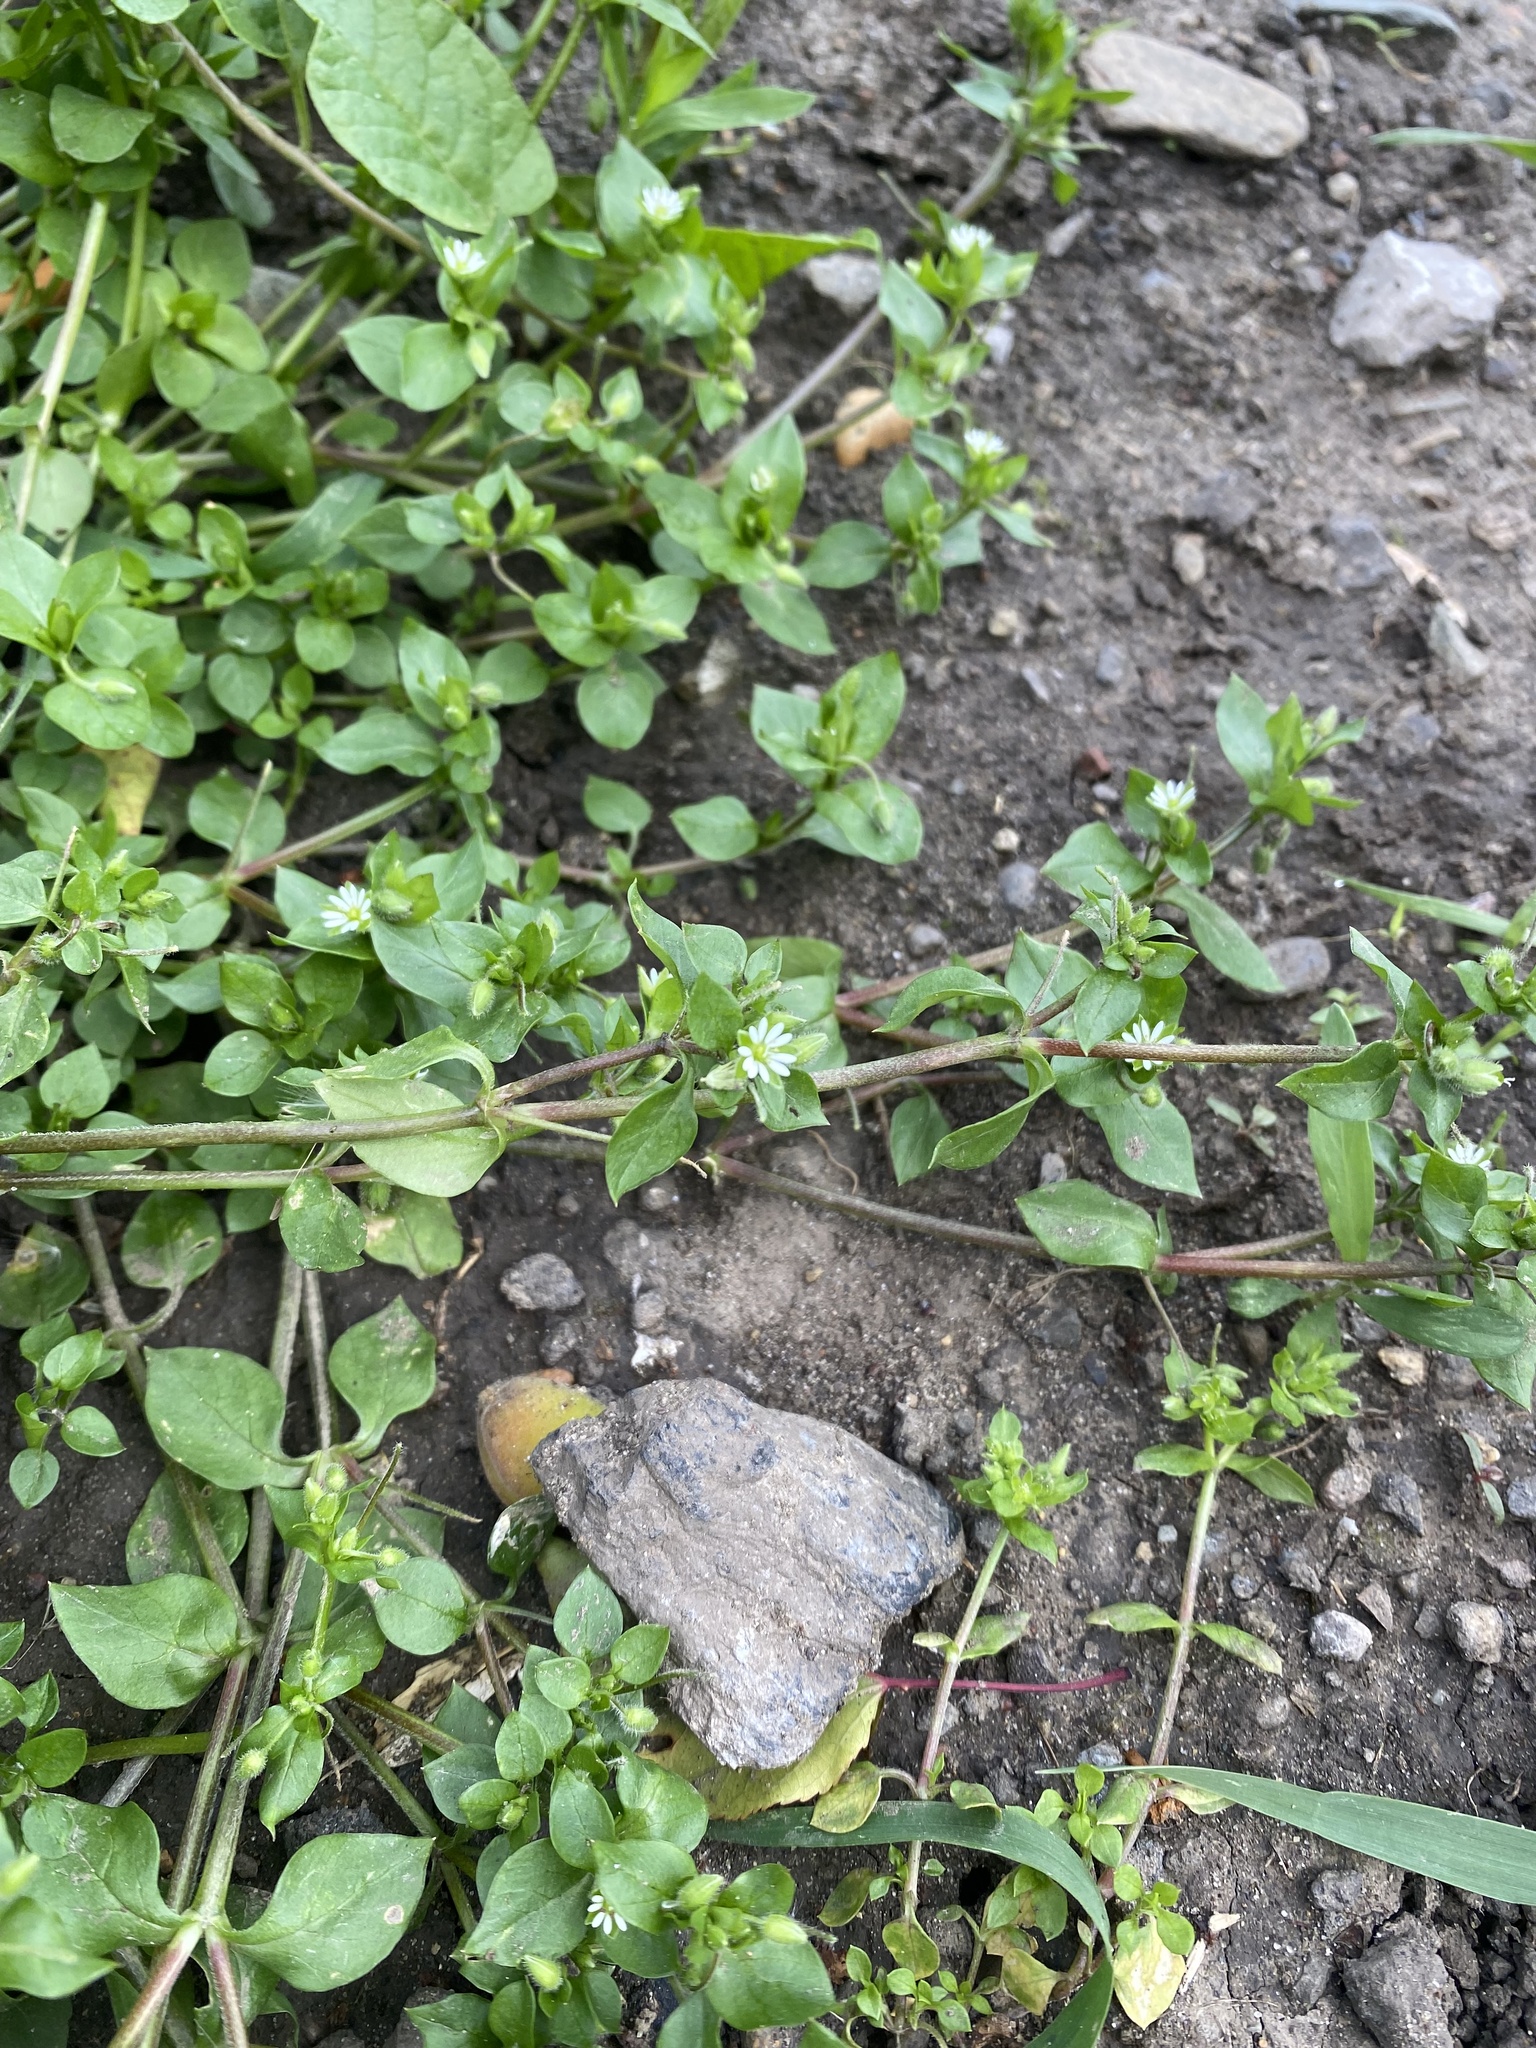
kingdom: Plantae
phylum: Tracheophyta
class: Magnoliopsida
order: Caryophyllales
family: Caryophyllaceae
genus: Stellaria
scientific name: Stellaria media
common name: Common chickweed
